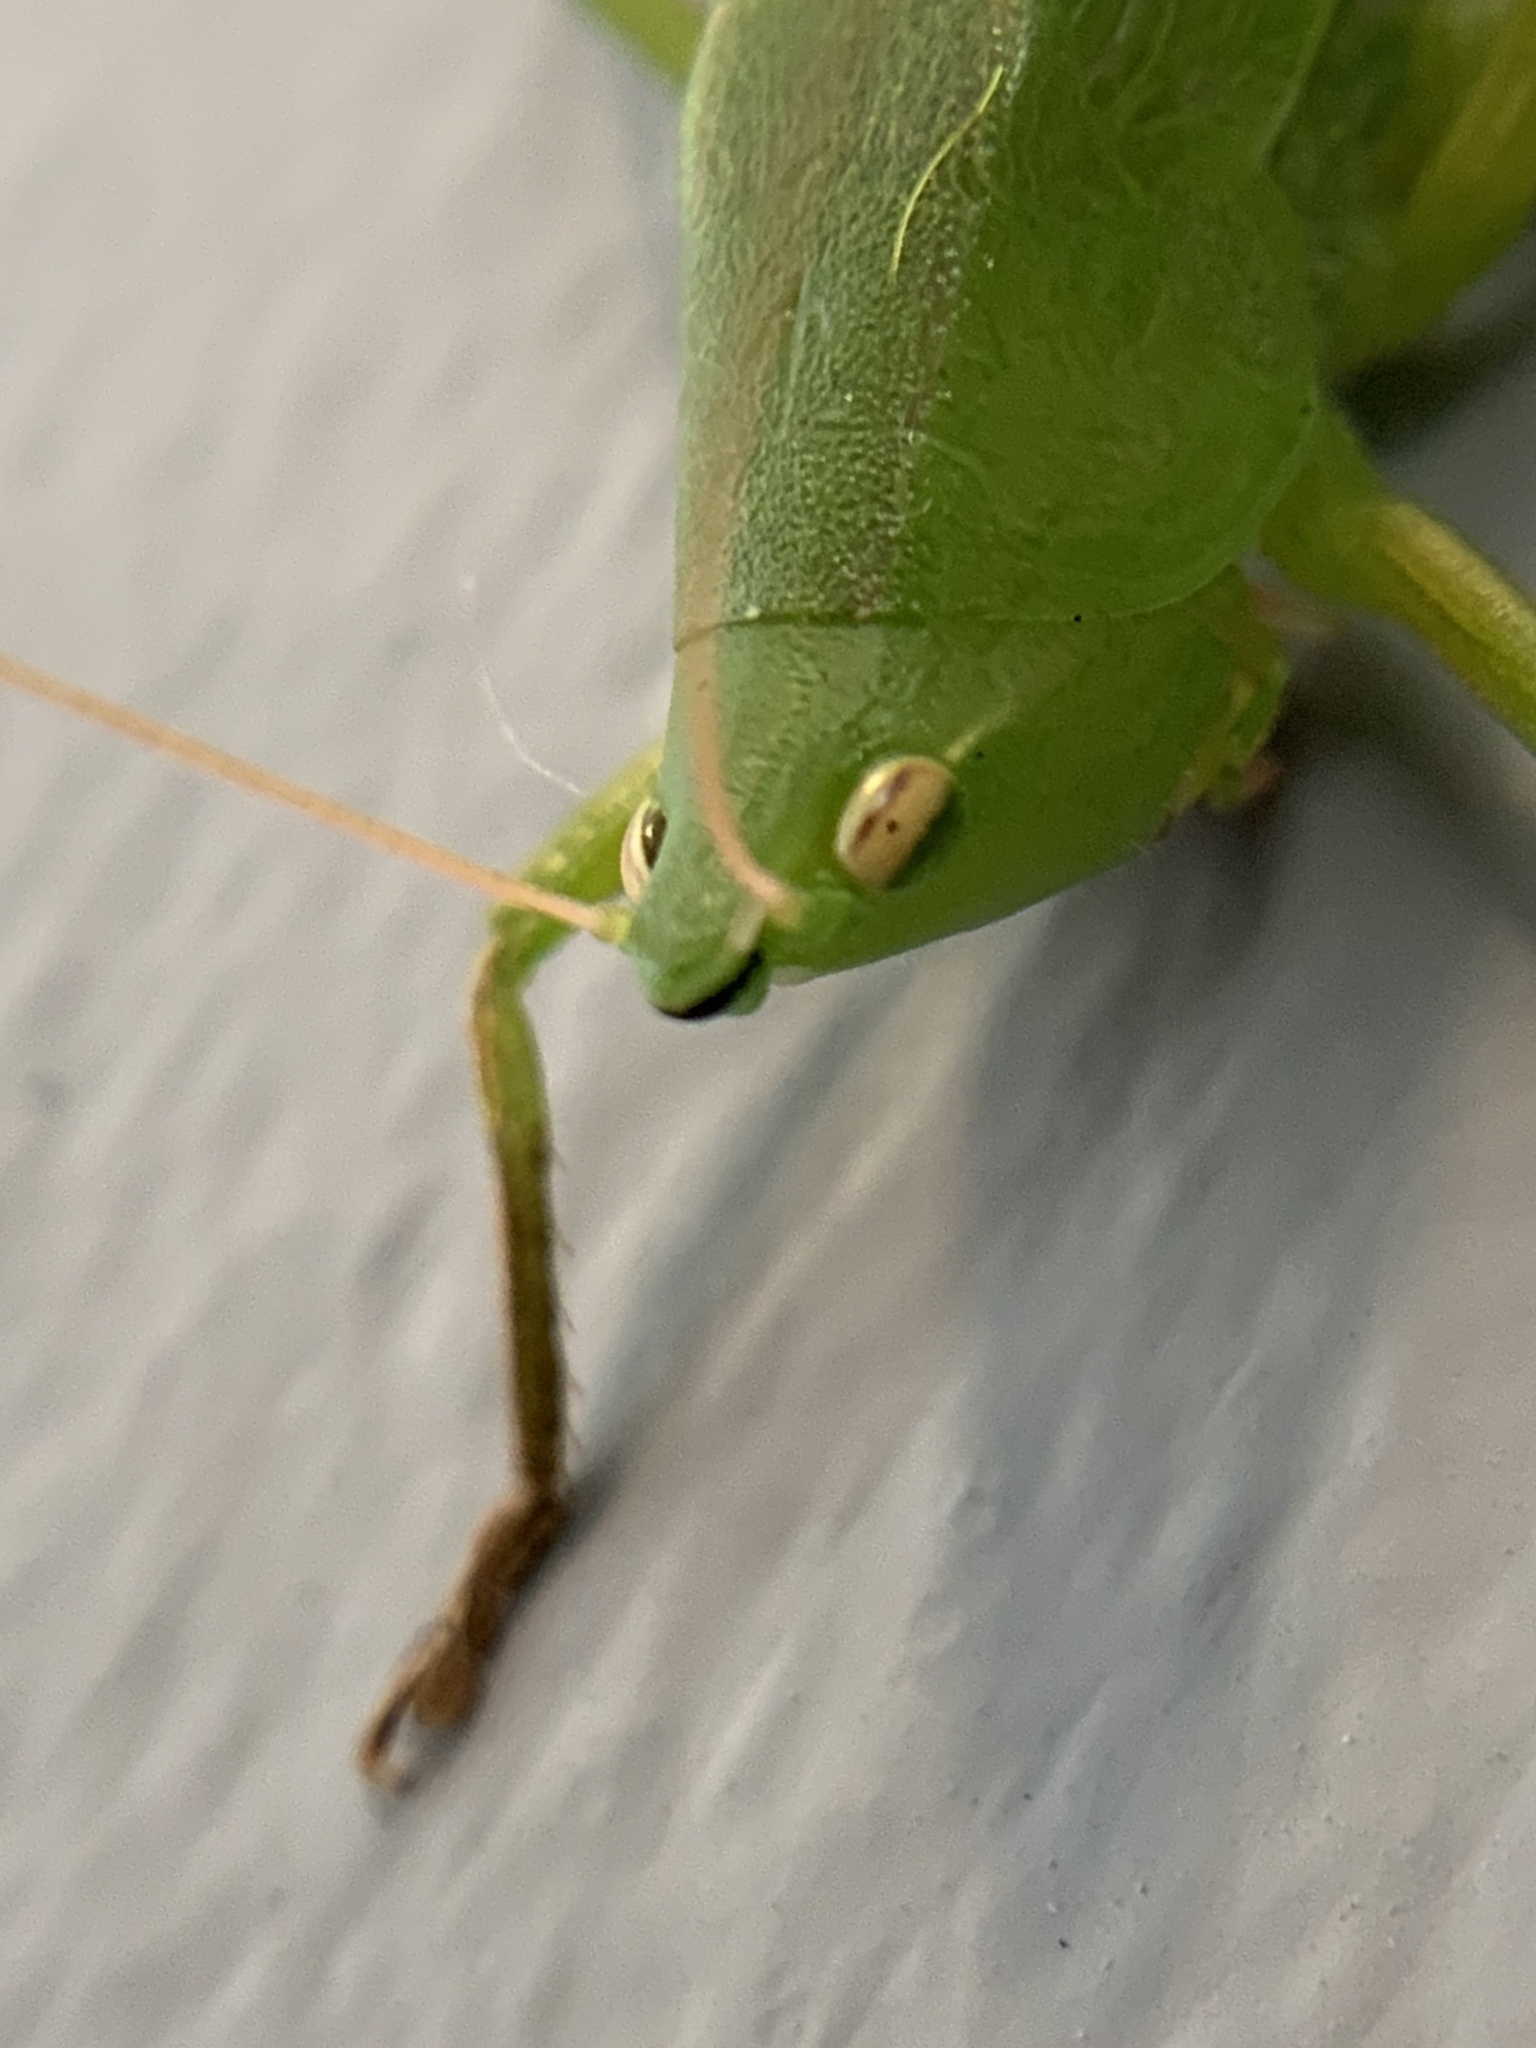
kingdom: Animalia
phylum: Arthropoda
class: Insecta
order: Orthoptera
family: Tettigoniidae
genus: Neoconocephalus
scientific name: Neoconocephalus triops
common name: Broad-tipped conehead
